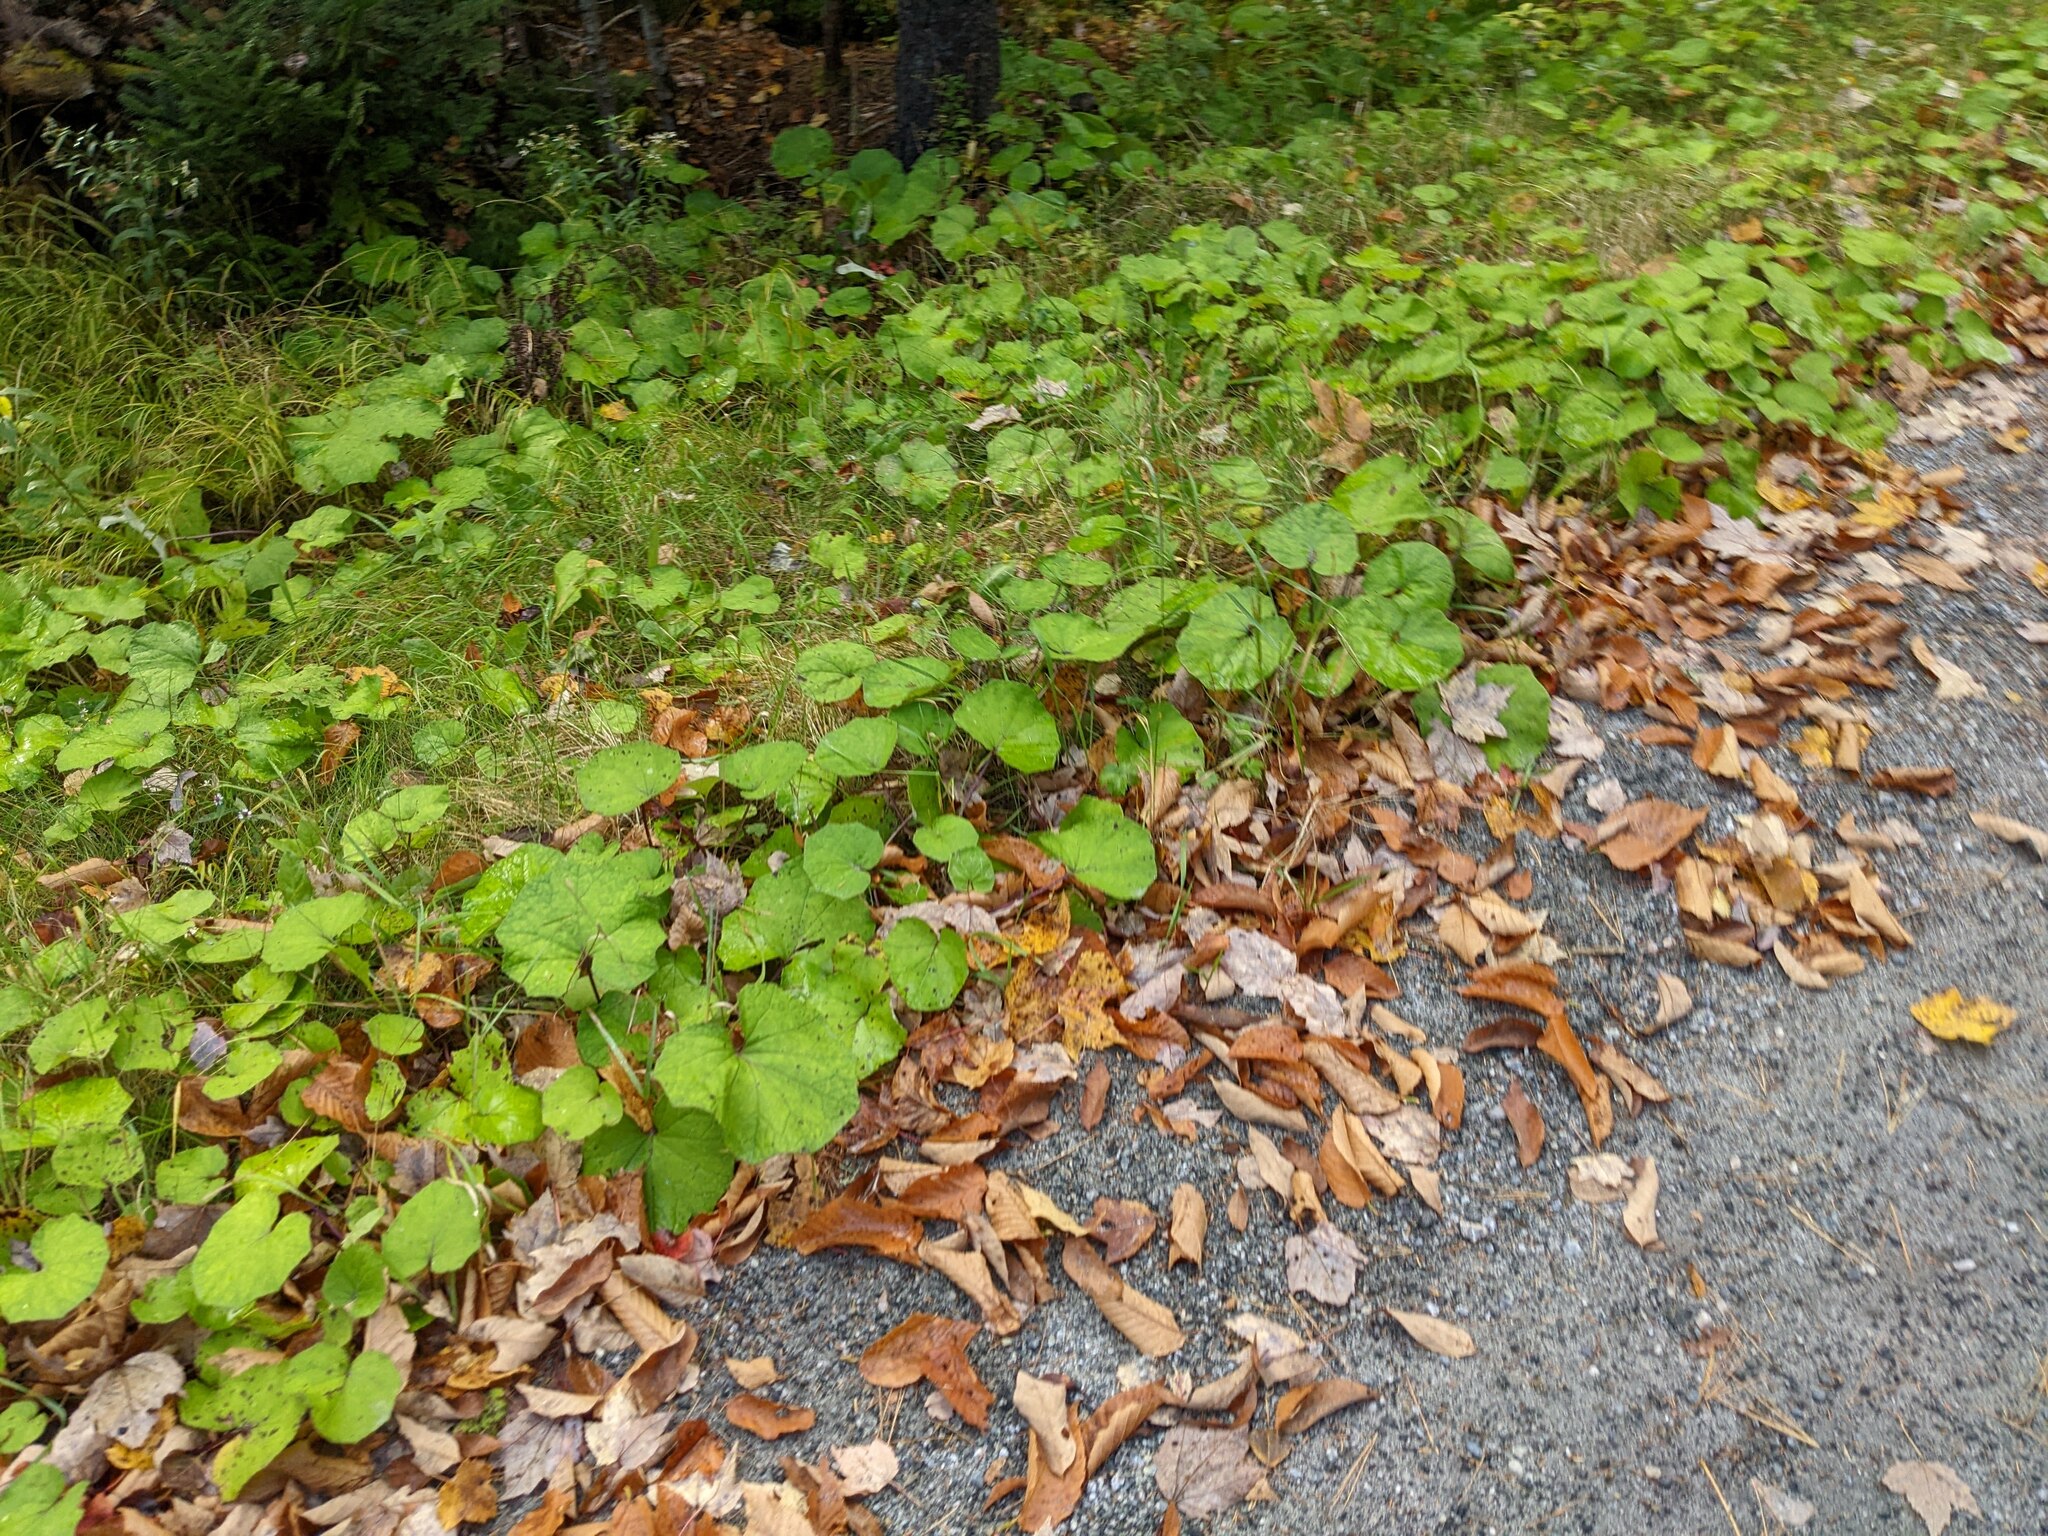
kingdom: Plantae
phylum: Tracheophyta
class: Magnoliopsida
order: Asterales
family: Asteraceae
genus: Tussilago
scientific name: Tussilago farfara
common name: Coltsfoot
